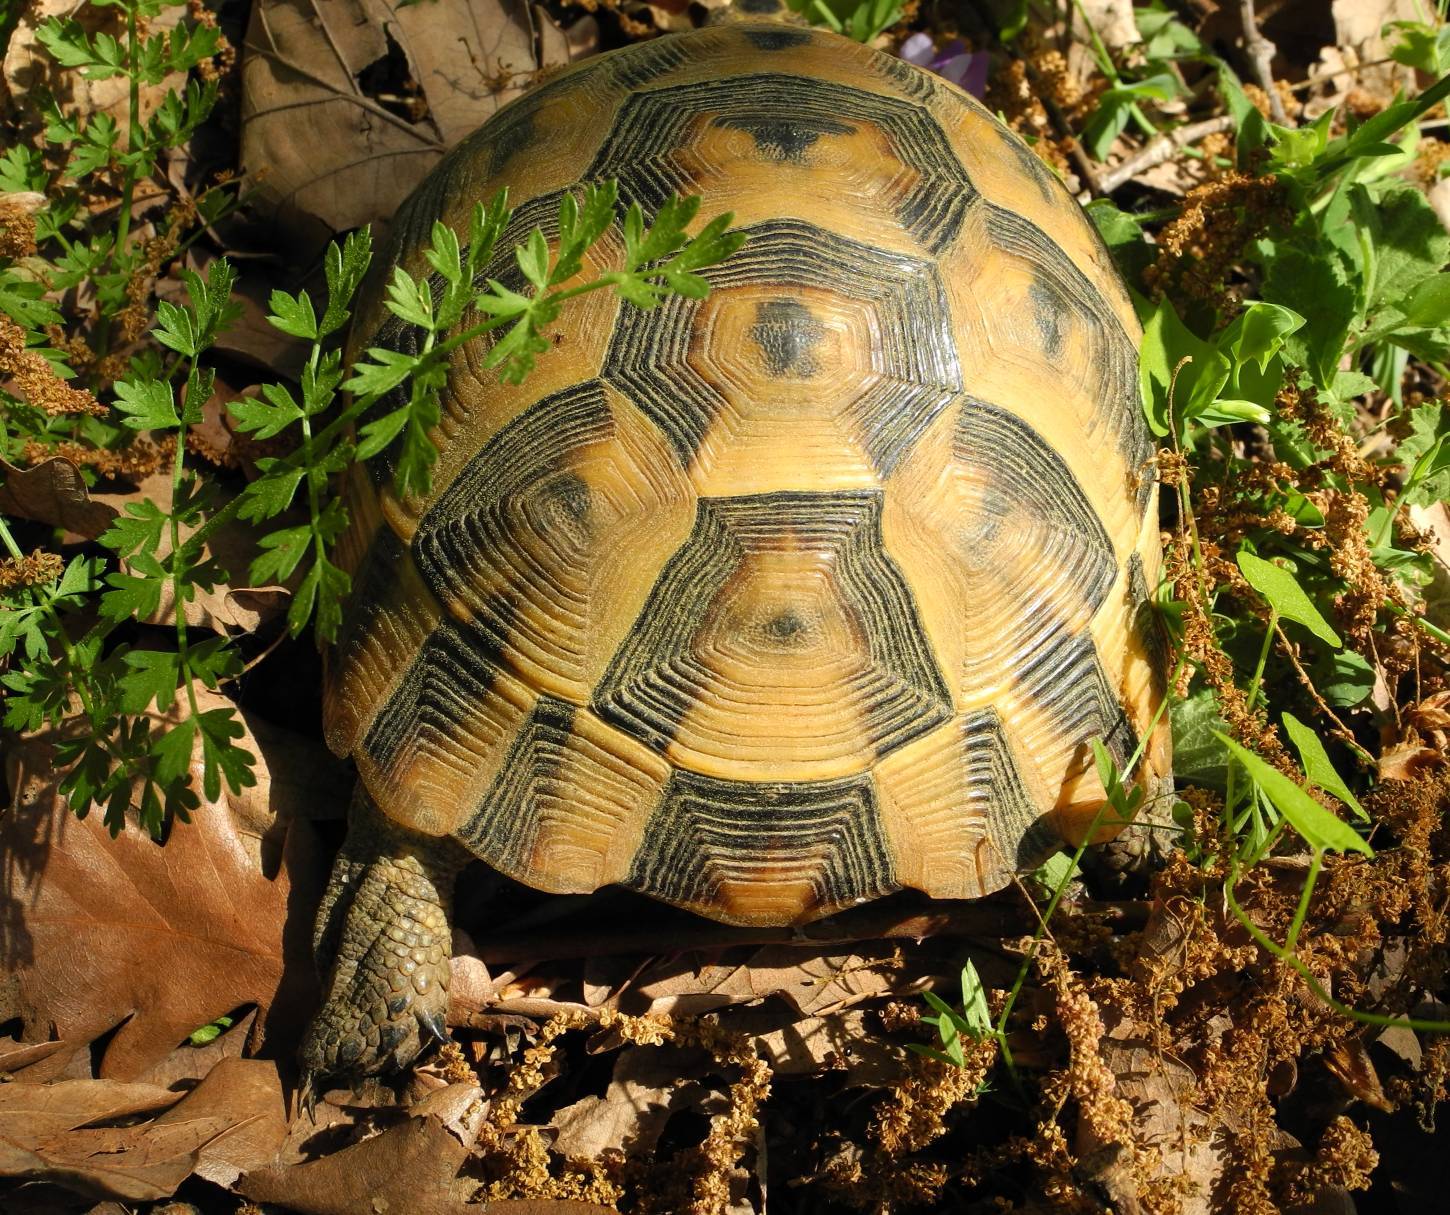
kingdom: Animalia
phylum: Chordata
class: Testudines
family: Testudinidae
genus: Testudo
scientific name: Testudo graeca
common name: Common tortoise
